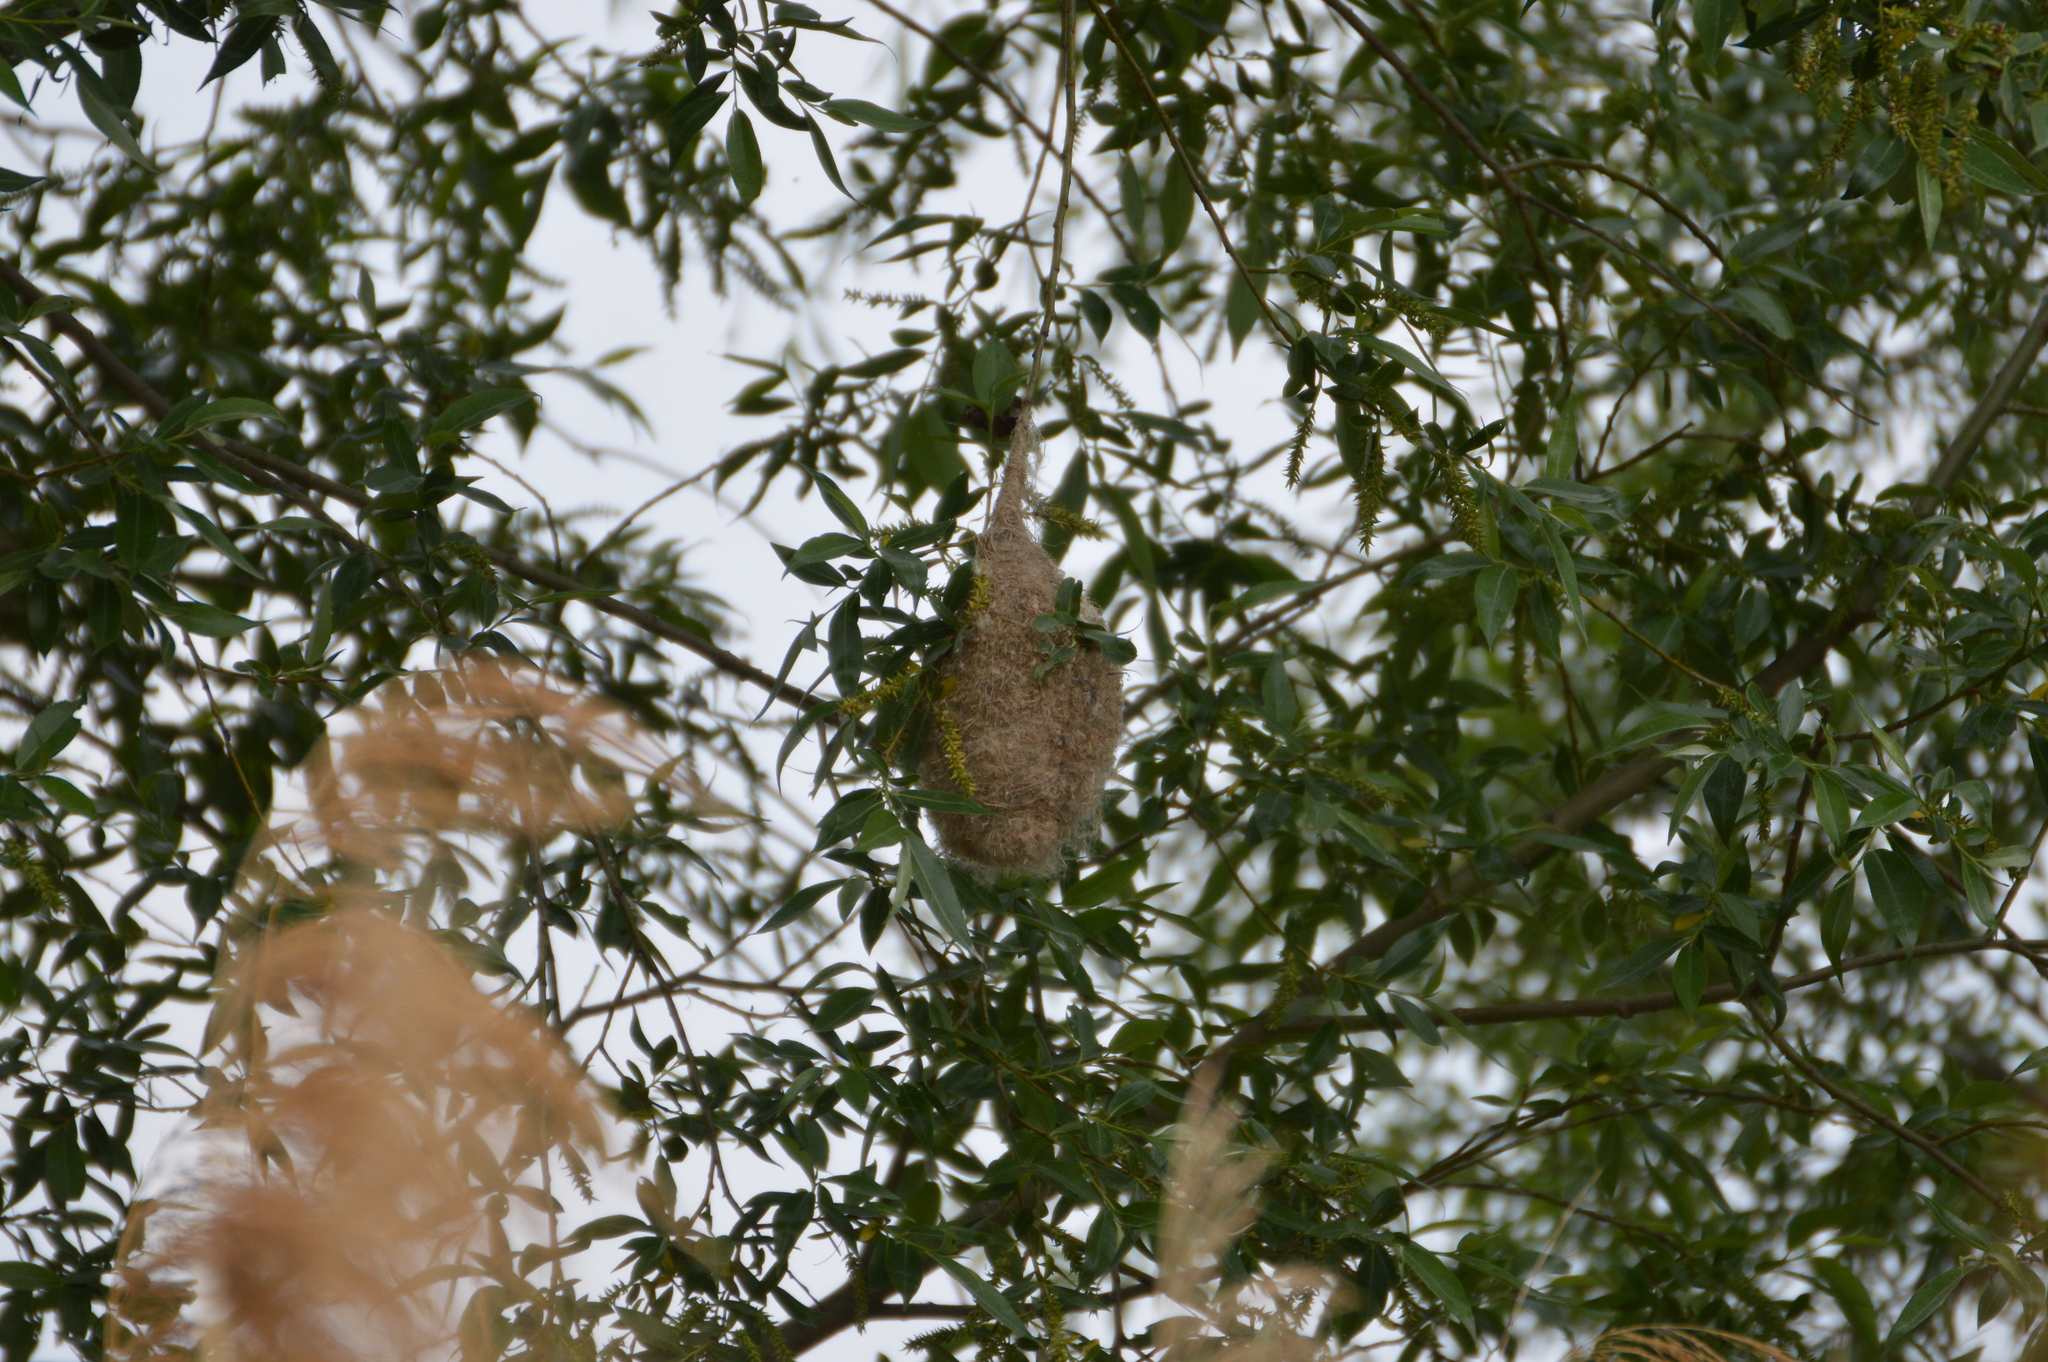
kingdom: Animalia
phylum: Chordata
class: Aves
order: Passeriformes
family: Remizidae
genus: Remiz
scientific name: Remiz pendulinus
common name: Eurasian penduline tit
